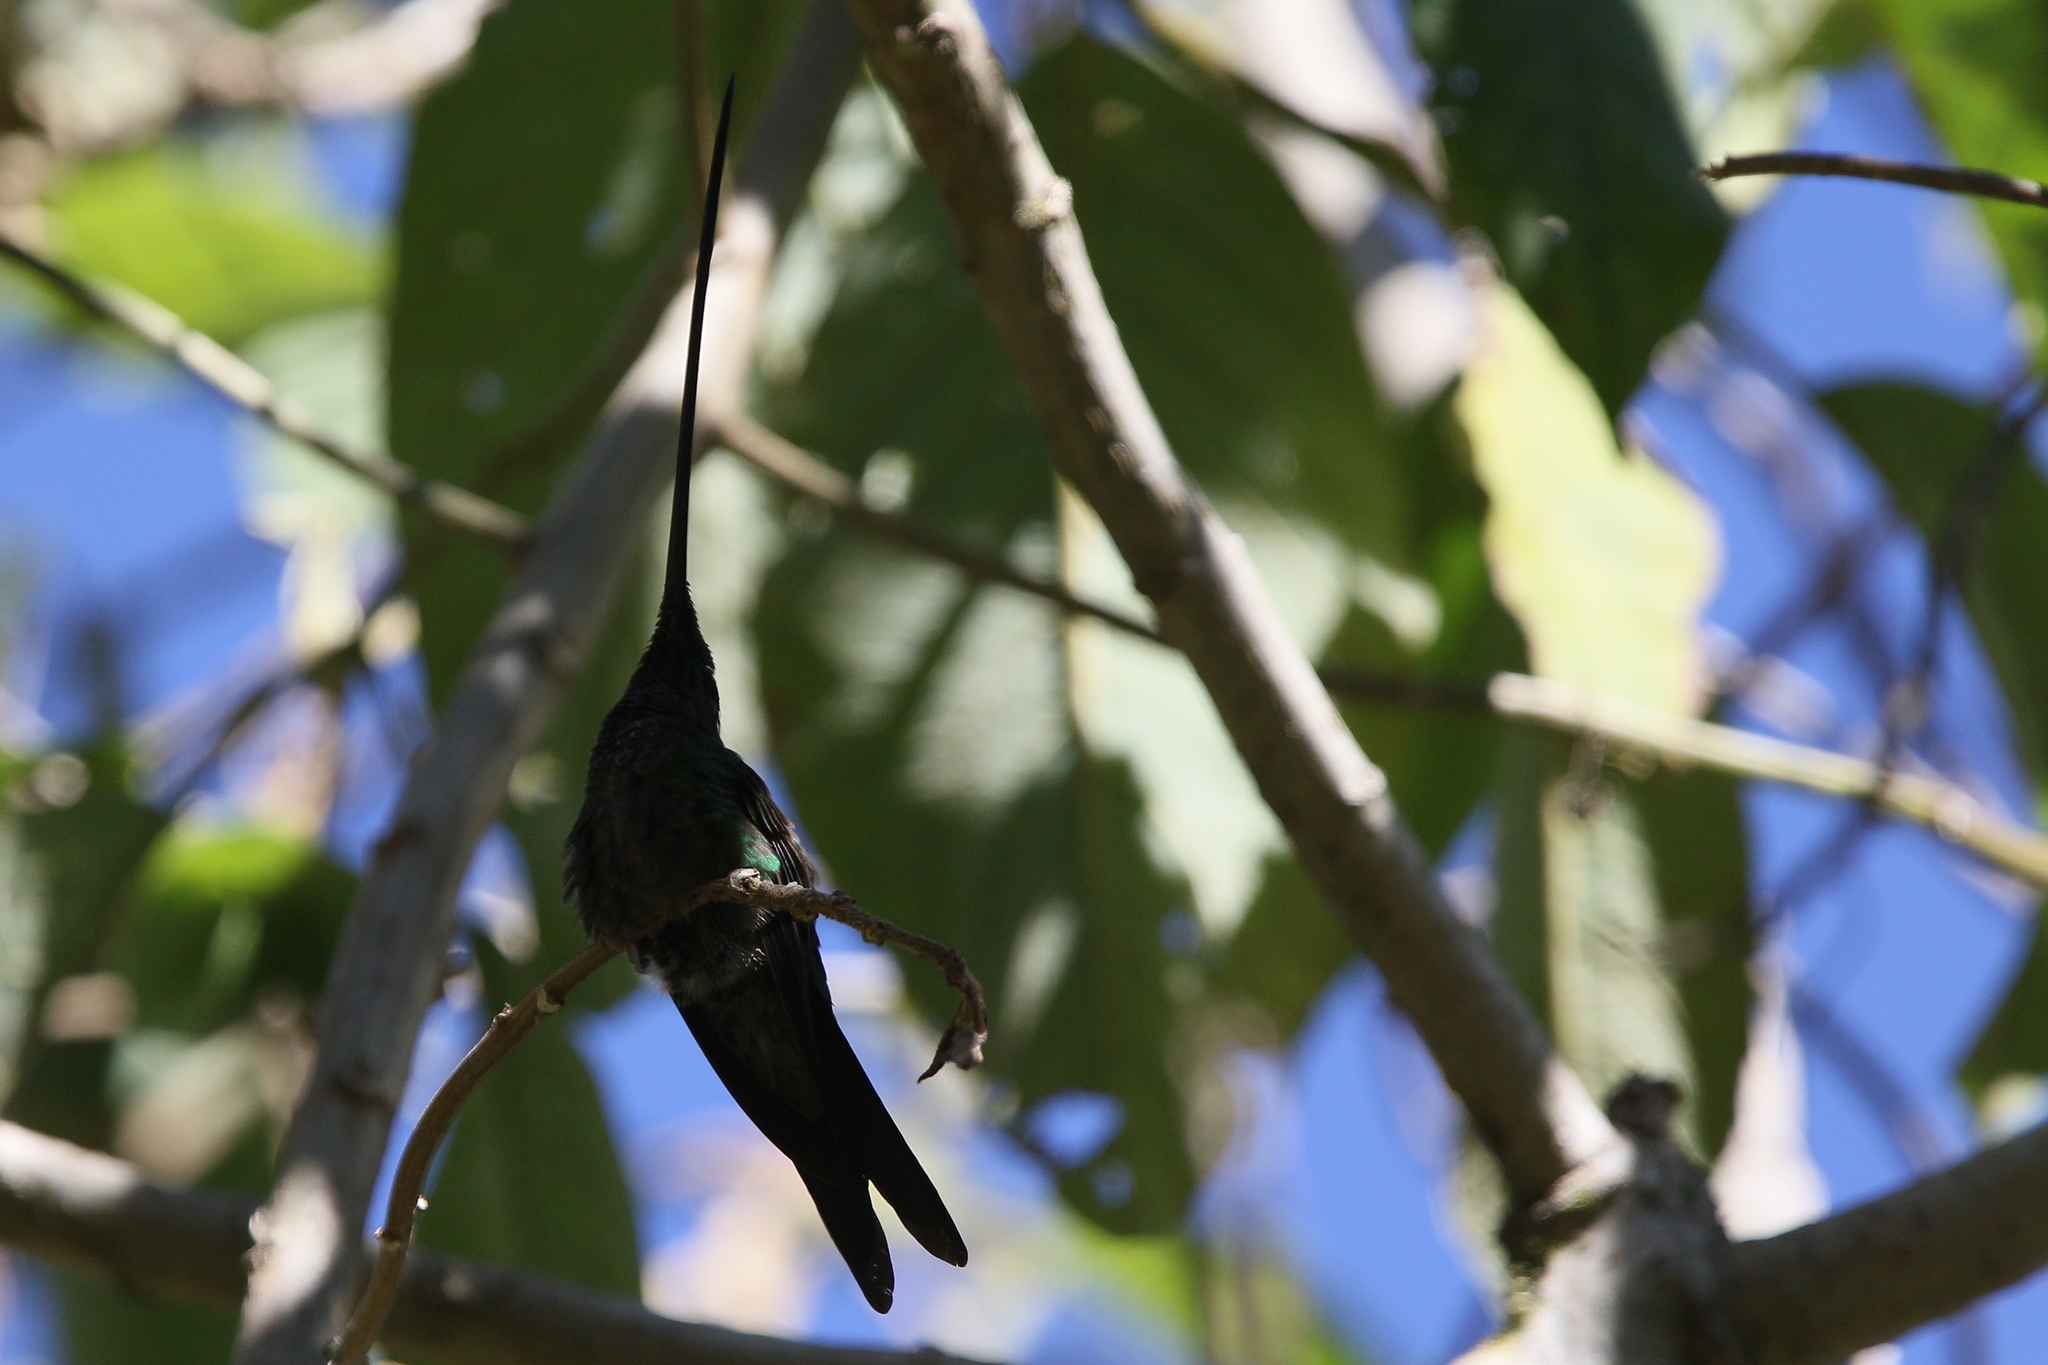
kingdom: Animalia
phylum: Chordata
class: Aves
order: Apodiformes
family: Trochilidae
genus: Ensifera
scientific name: Ensifera ensifera
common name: Sword-billed hummingbird
